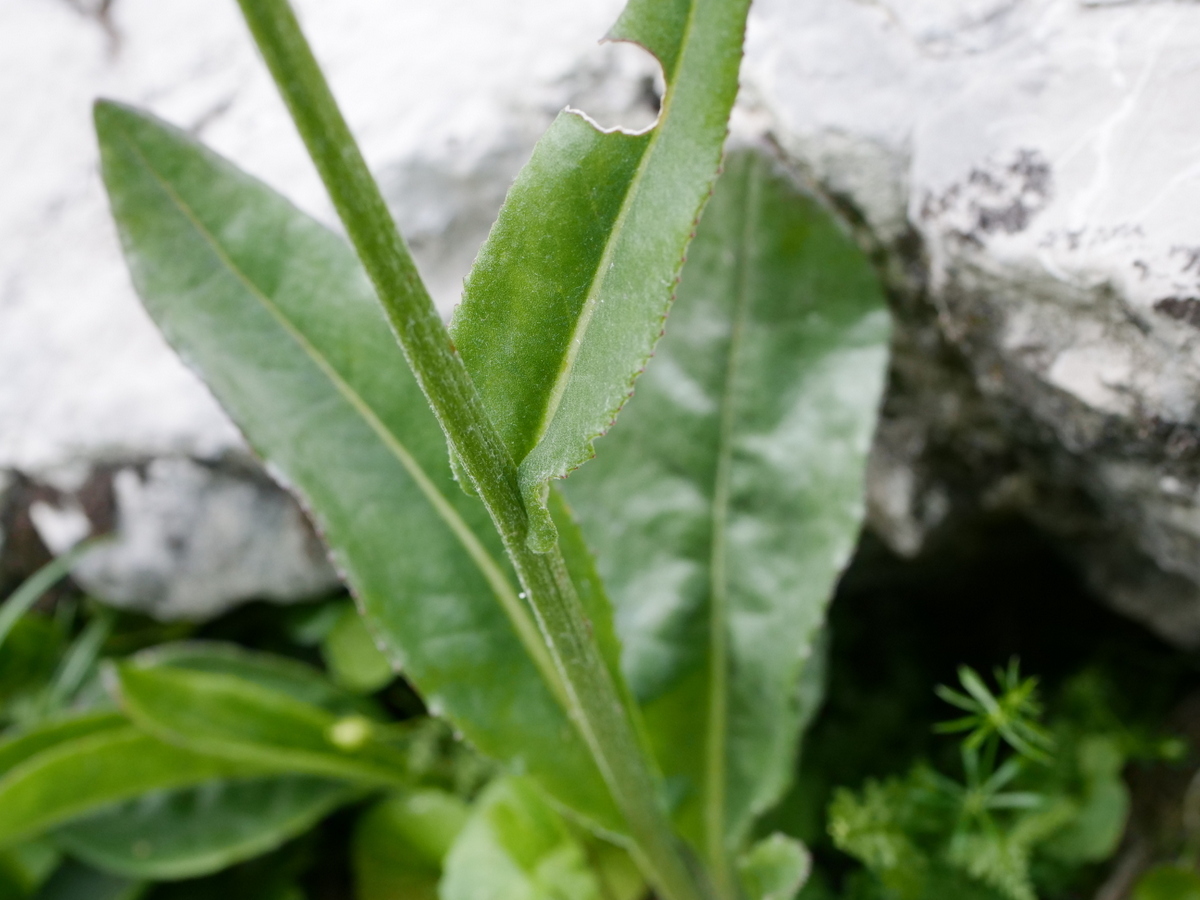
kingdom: Plantae
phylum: Tracheophyta
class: Magnoliopsida
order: Asterales
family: Asteraceae
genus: Senecio
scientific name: Senecio doronicum
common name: Chamois ragwort
